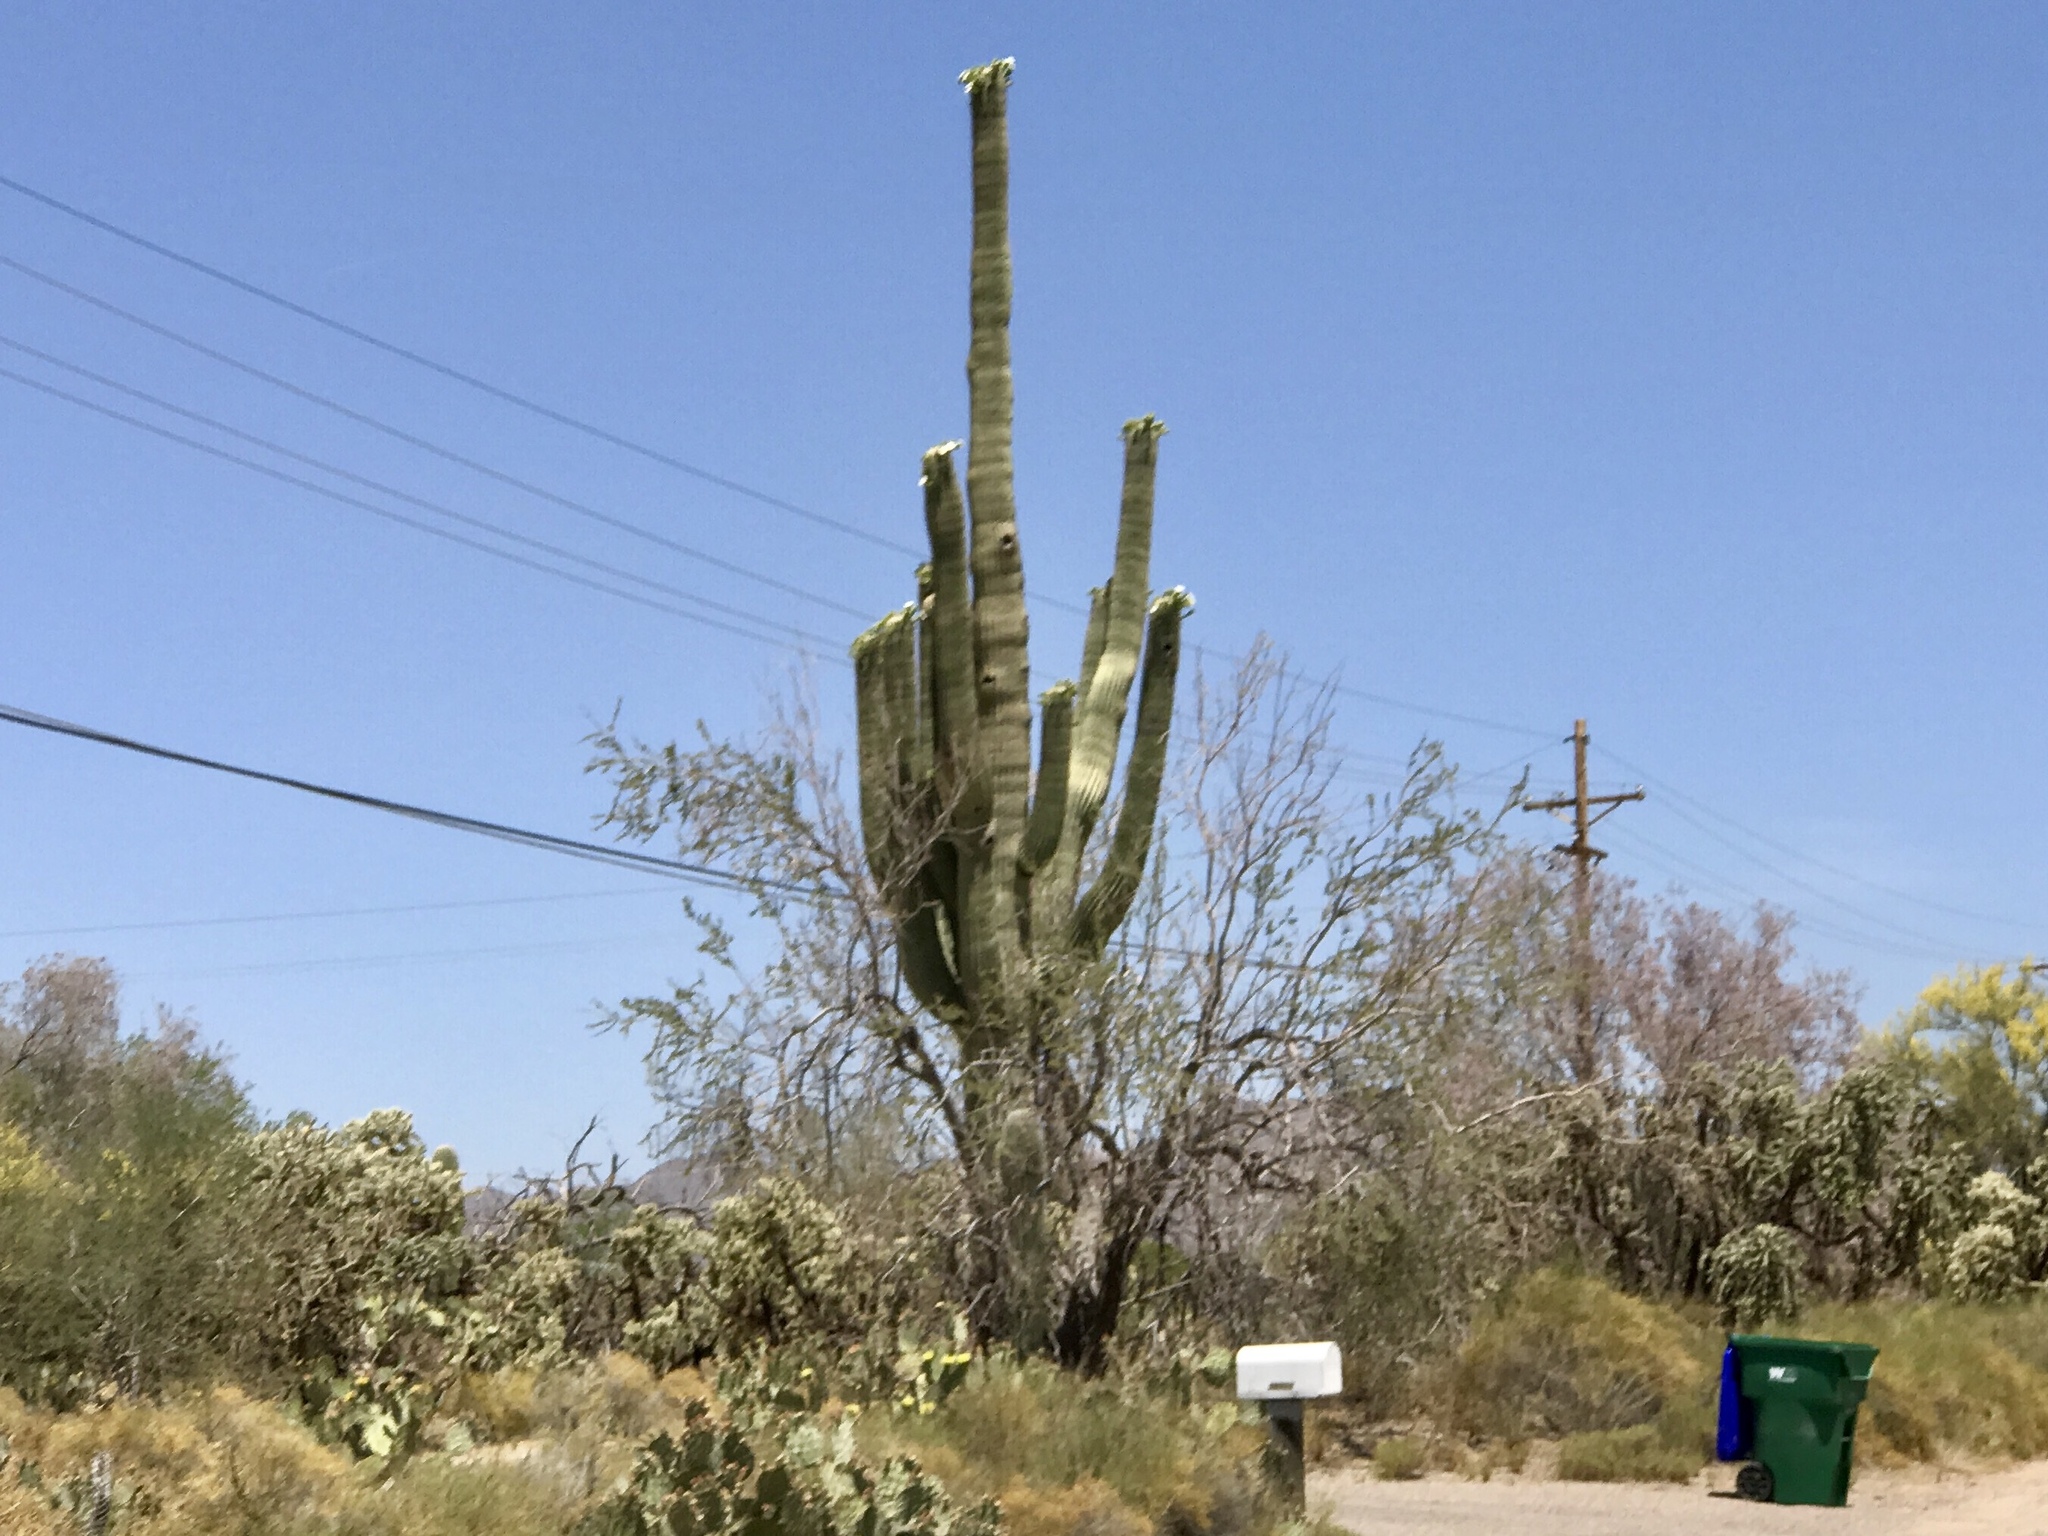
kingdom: Plantae
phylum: Tracheophyta
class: Magnoliopsida
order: Caryophyllales
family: Cactaceae
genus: Carnegiea
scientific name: Carnegiea gigantea
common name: Saguaro
